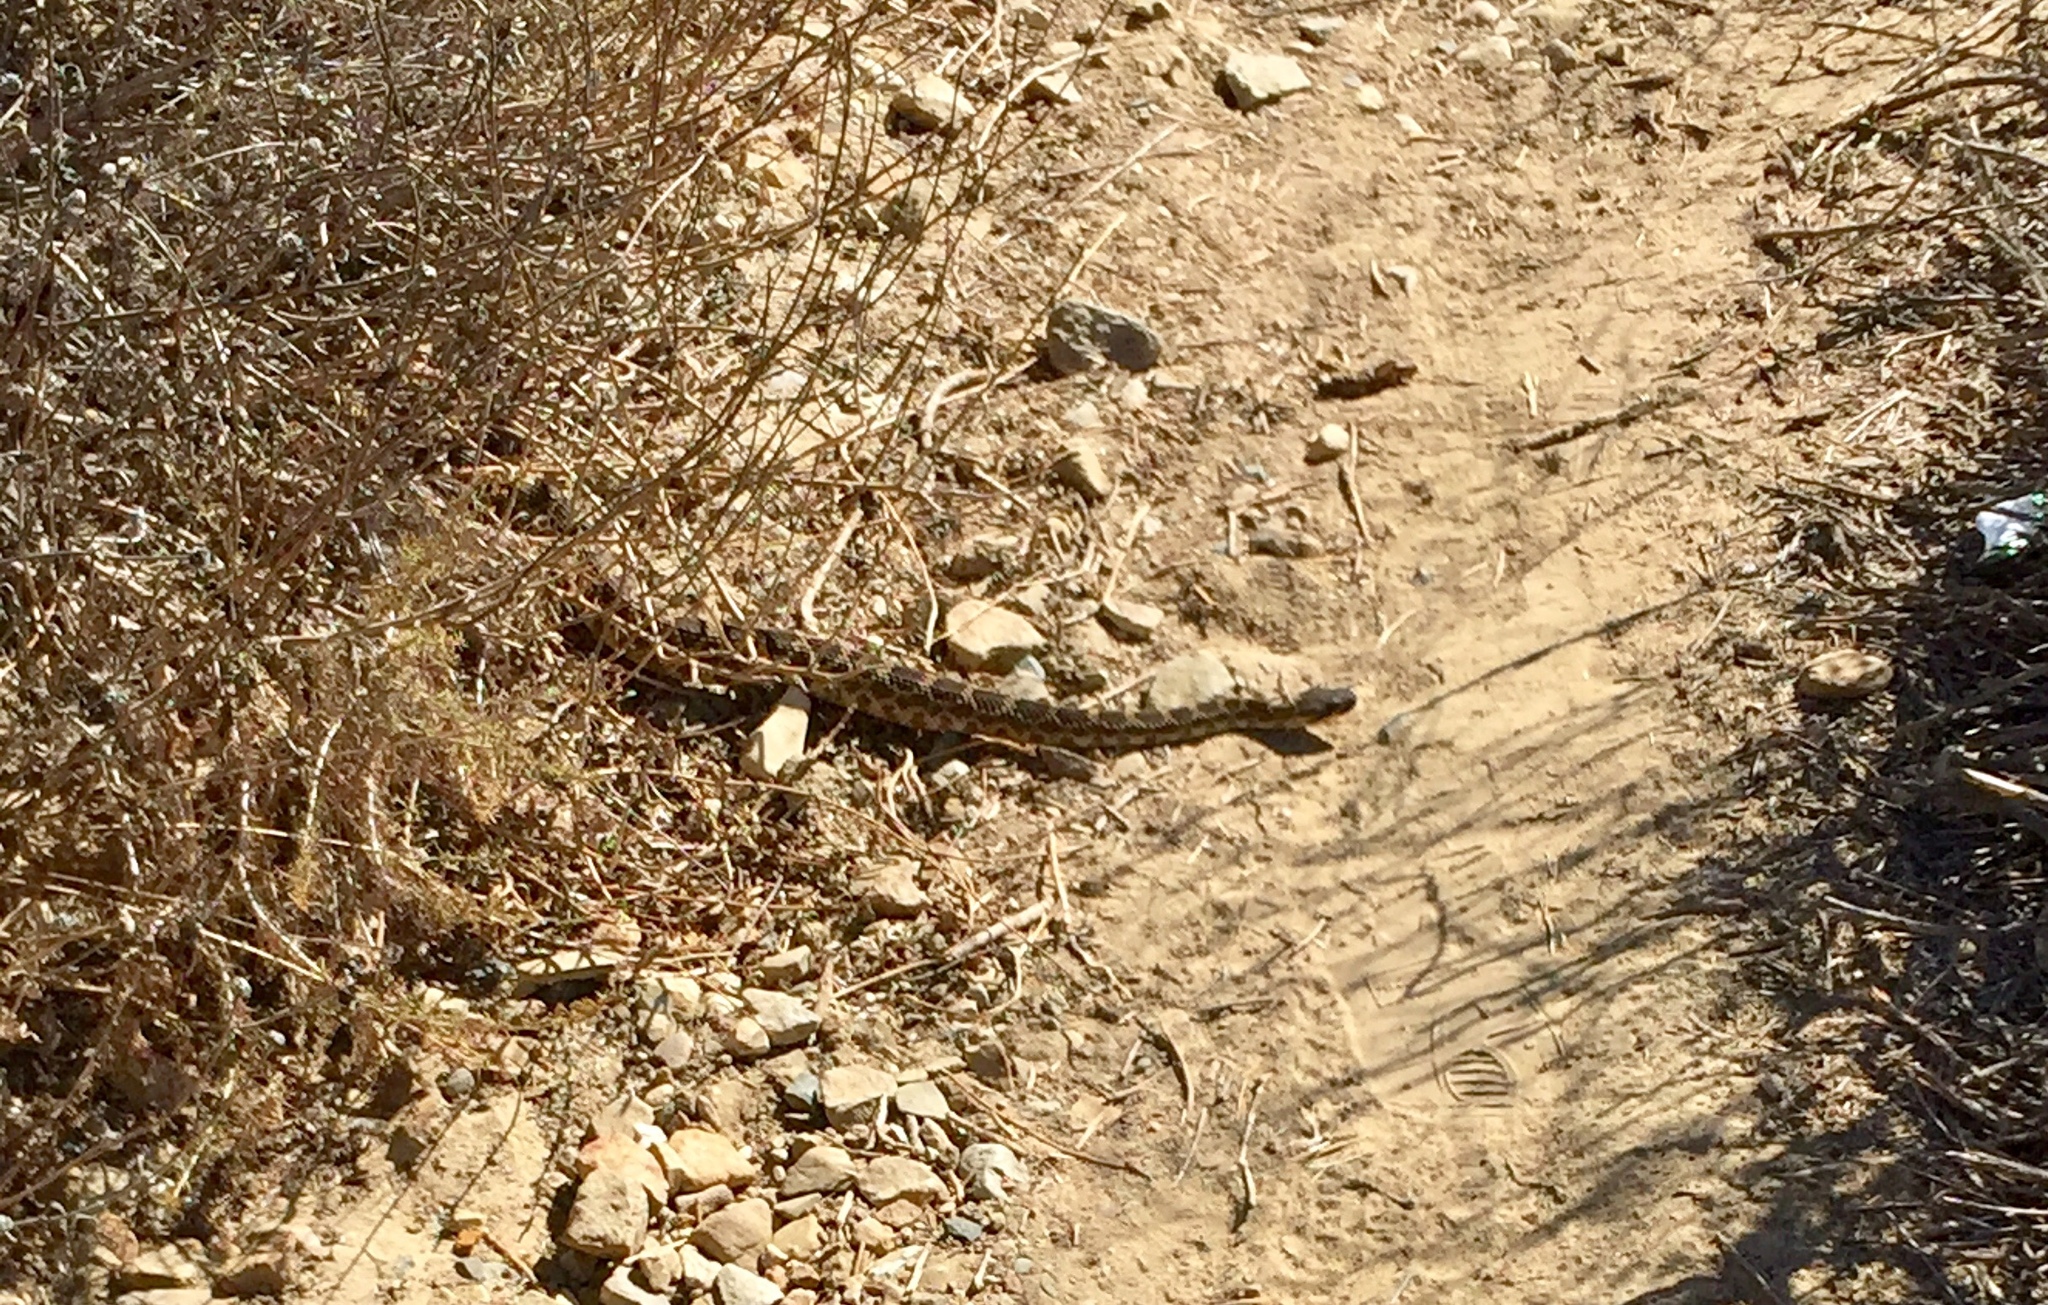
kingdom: Animalia
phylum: Chordata
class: Squamata
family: Viperidae
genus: Crotalus
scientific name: Crotalus oreganus
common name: Abyssus
